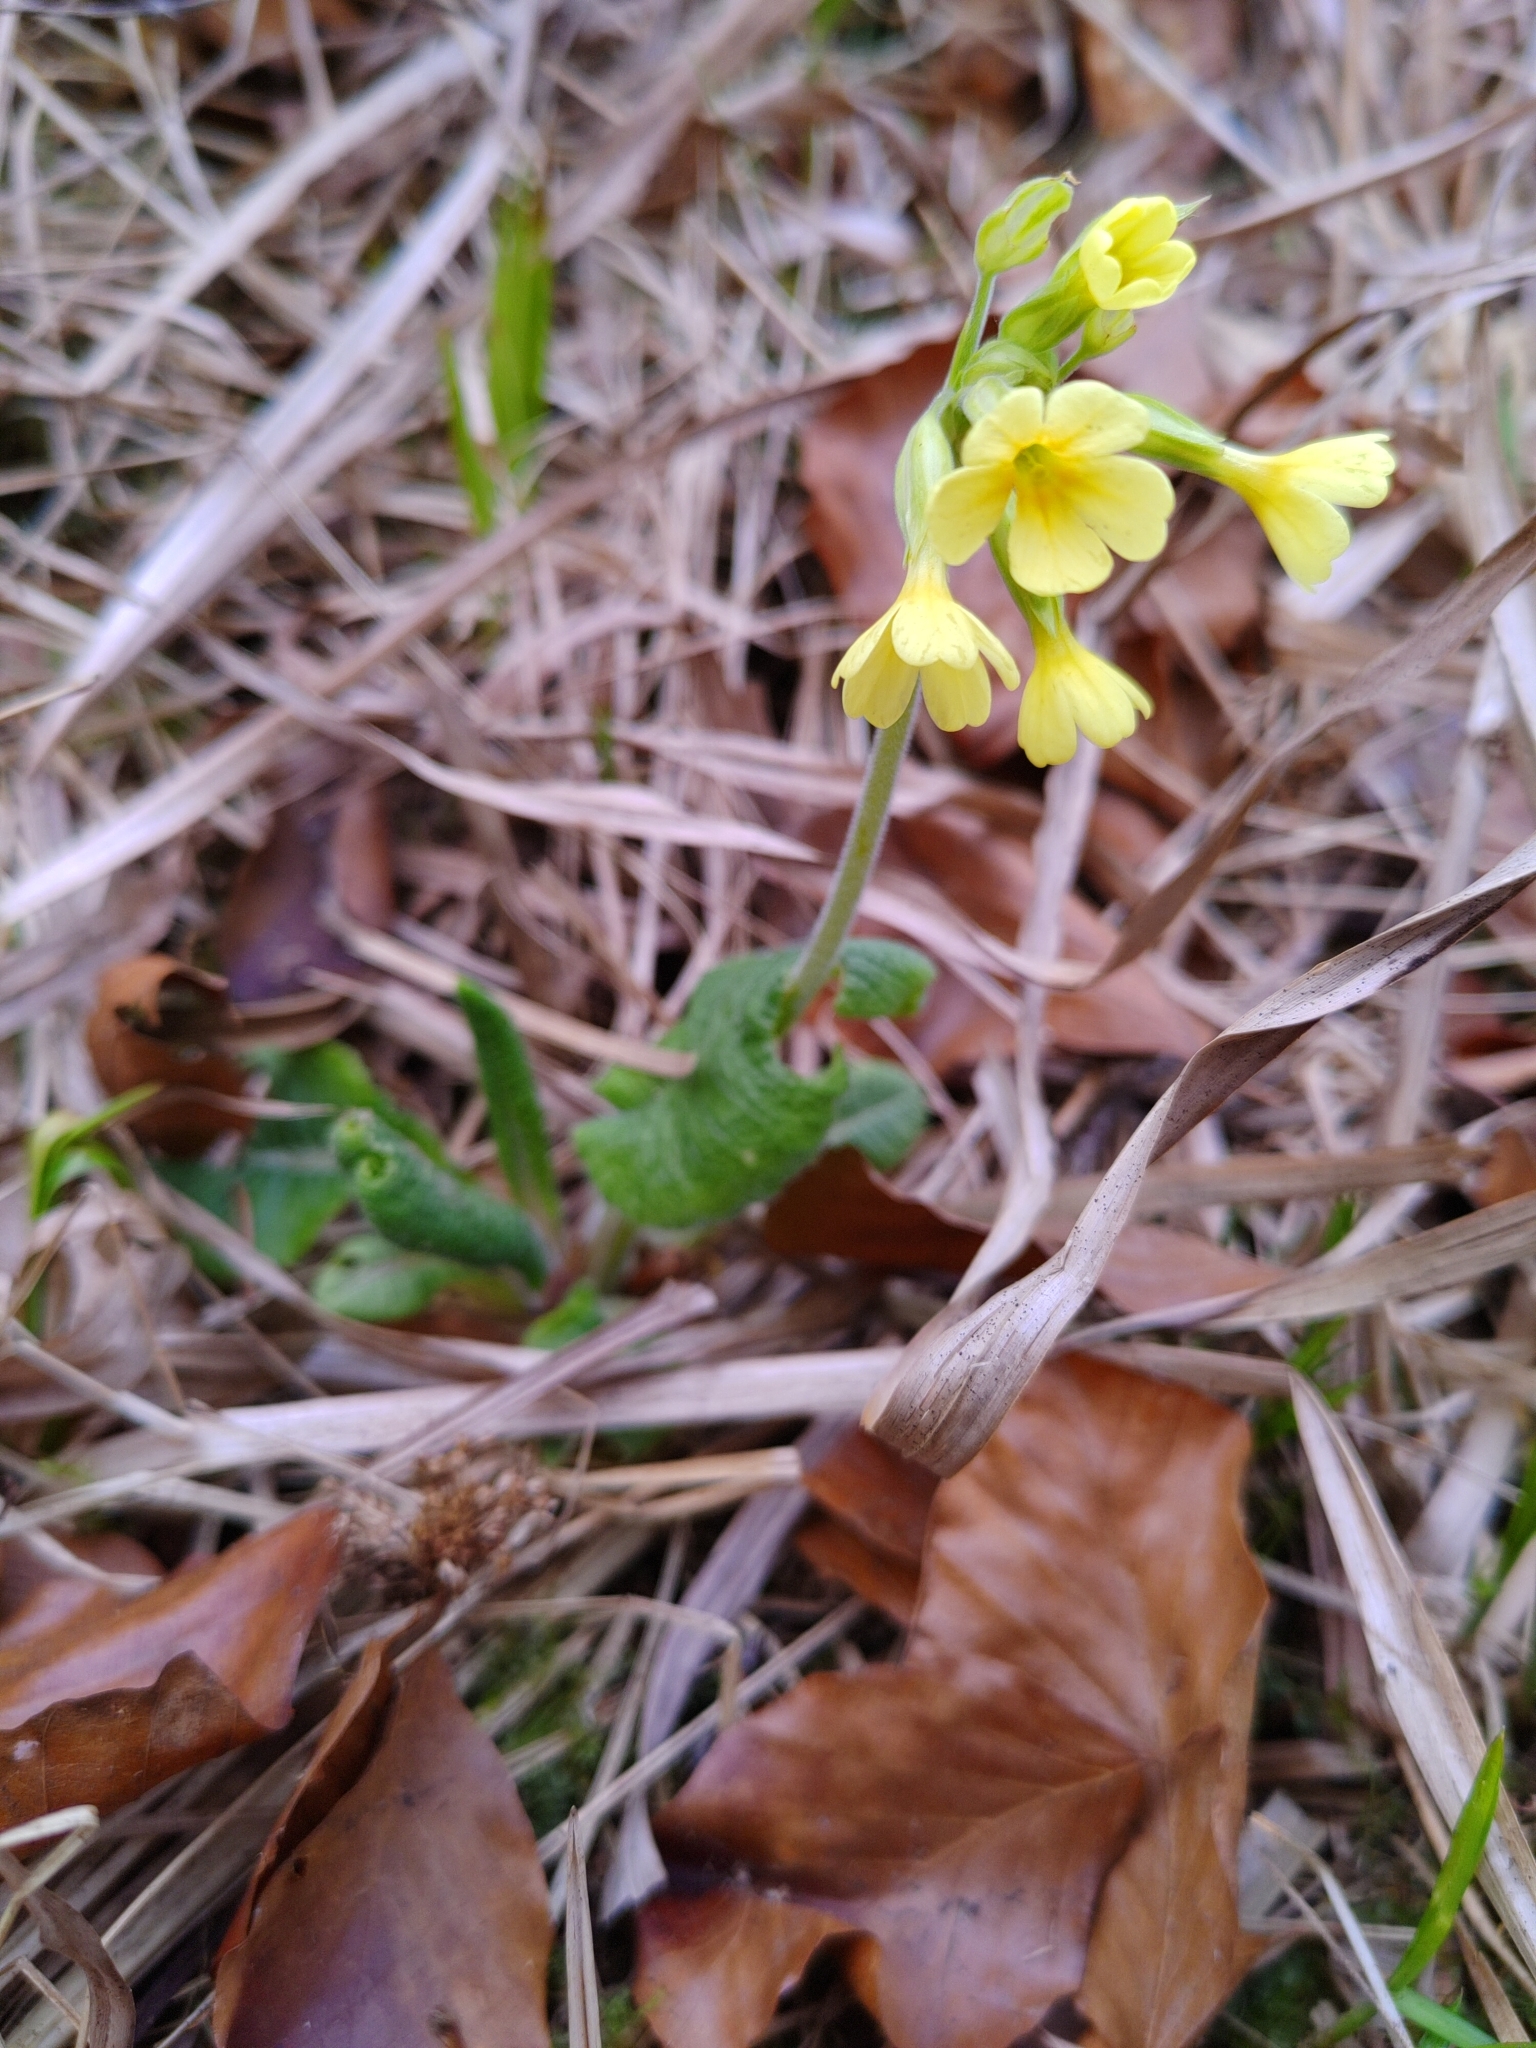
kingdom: Plantae
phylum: Tracheophyta
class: Magnoliopsida
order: Ericales
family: Primulaceae
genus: Primula
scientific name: Primula elatior
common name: Oxlip
